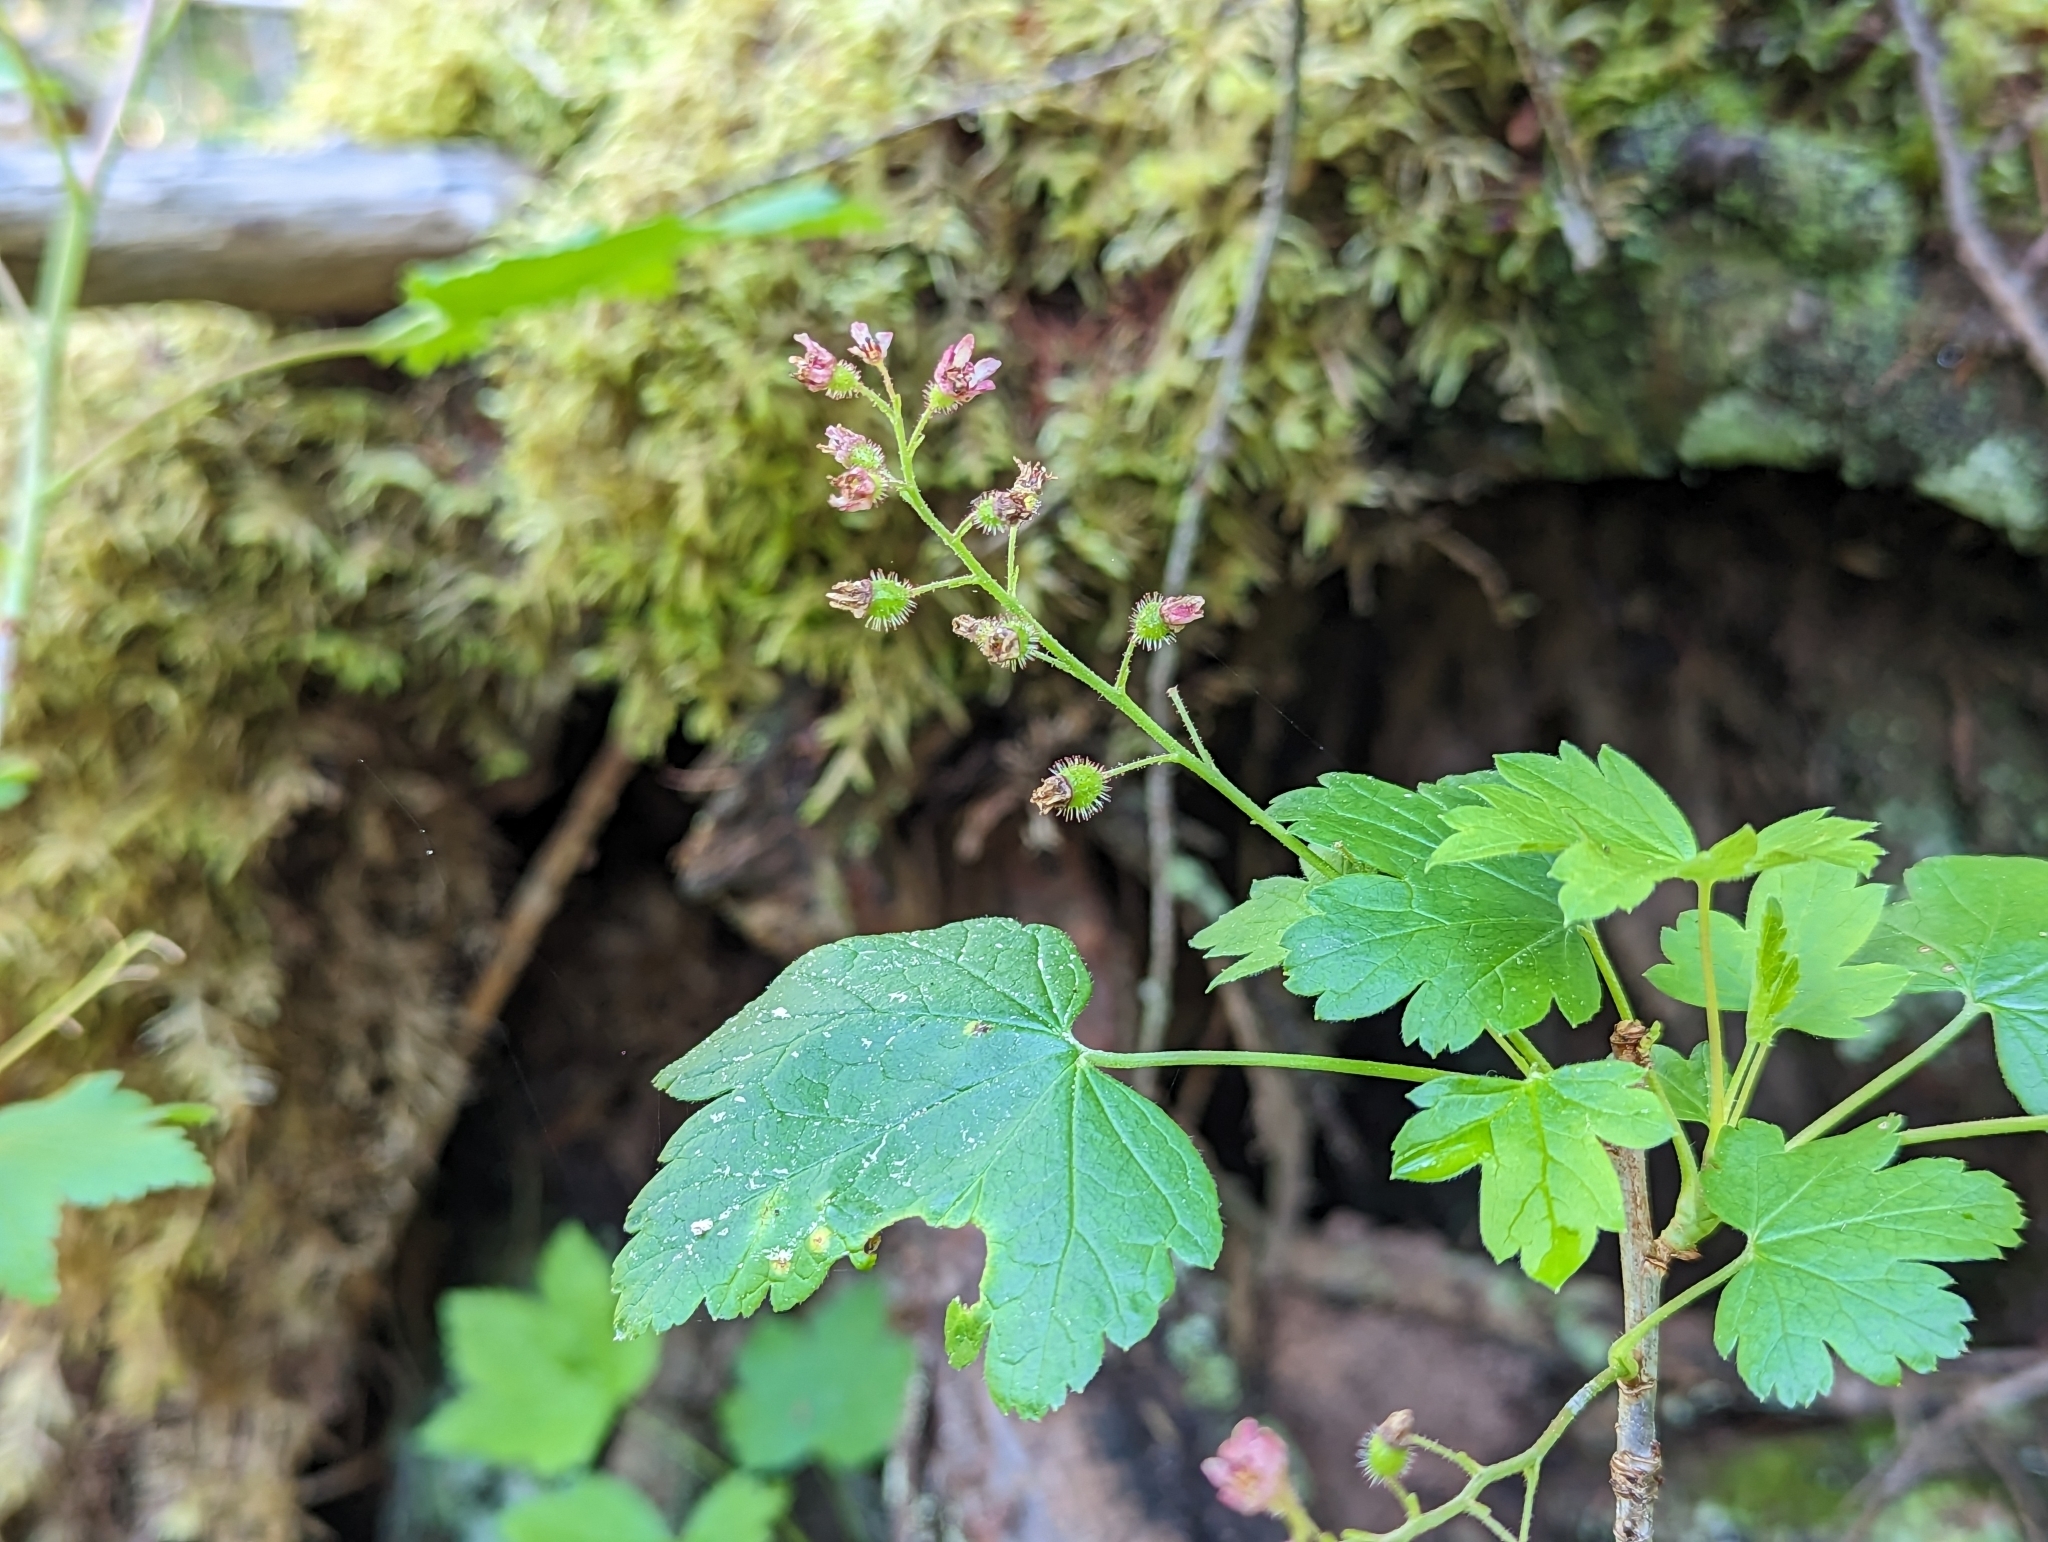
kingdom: Plantae
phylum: Tracheophyta
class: Magnoliopsida
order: Saxifragales
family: Grossulariaceae
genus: Ribes
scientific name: Ribes glandulosum
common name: Skunk currant
